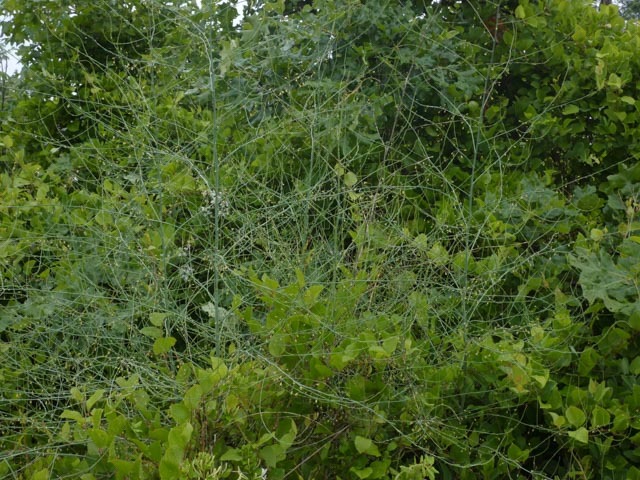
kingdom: Plantae
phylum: Tracheophyta
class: Liliopsida
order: Asparagales
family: Asparagaceae
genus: Asparagus
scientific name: Asparagus officinalis
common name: Garden asparagus
